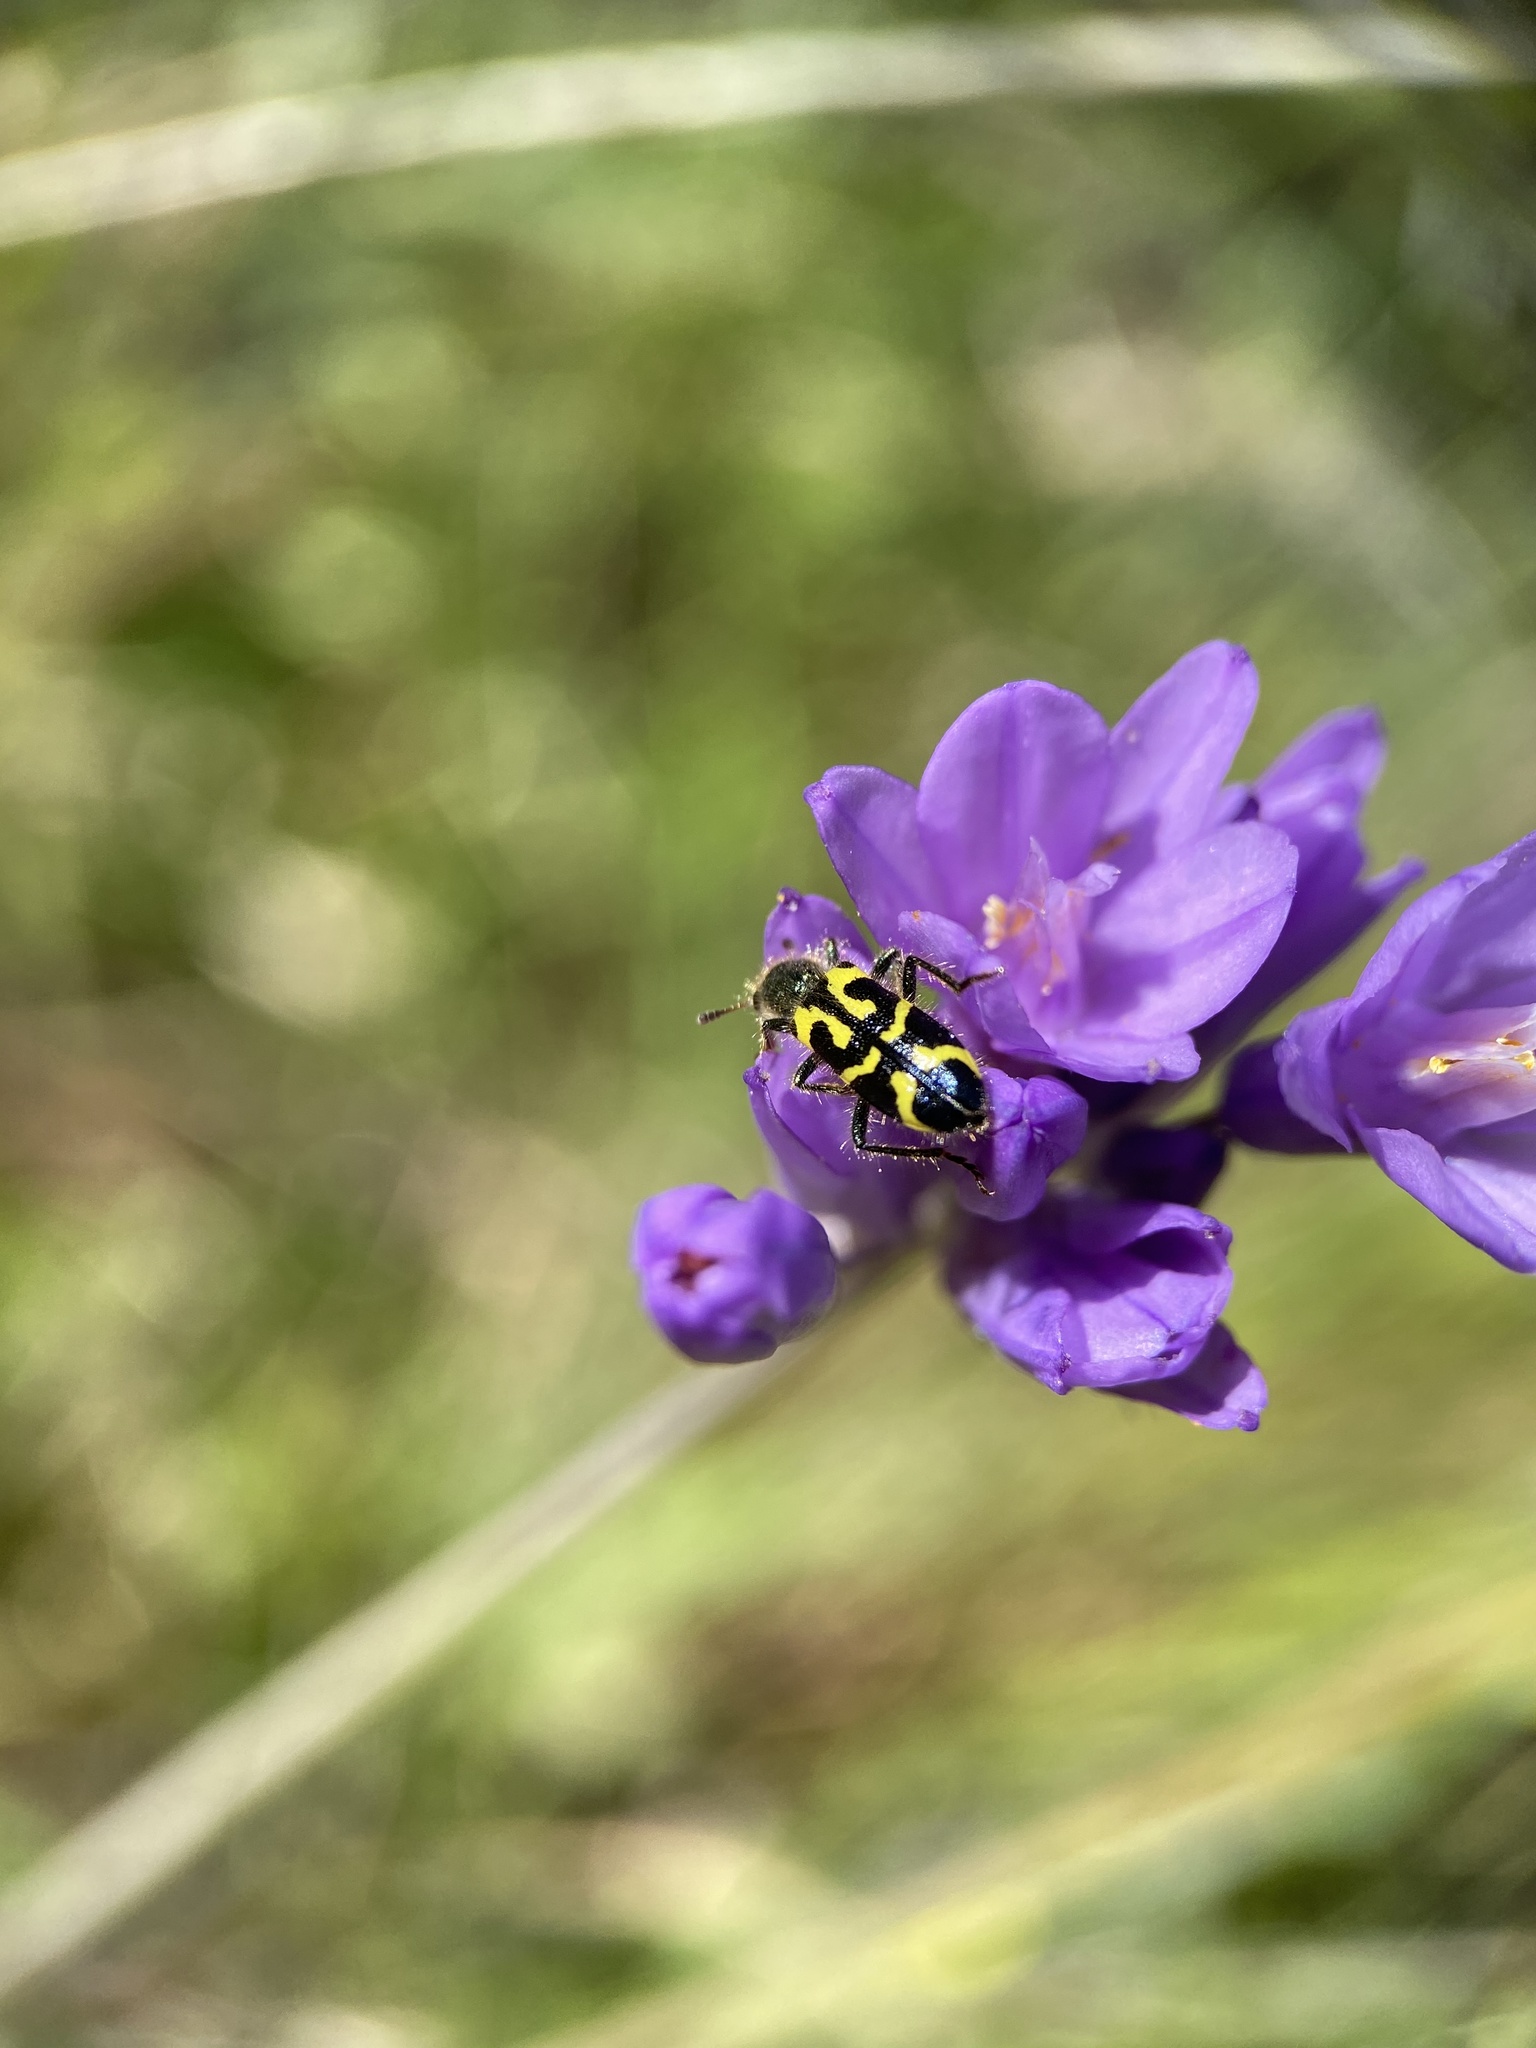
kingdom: Animalia
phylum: Arthropoda
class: Insecta
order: Coleoptera
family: Cleridae
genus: Trichodes
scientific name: Trichodes ornatus
